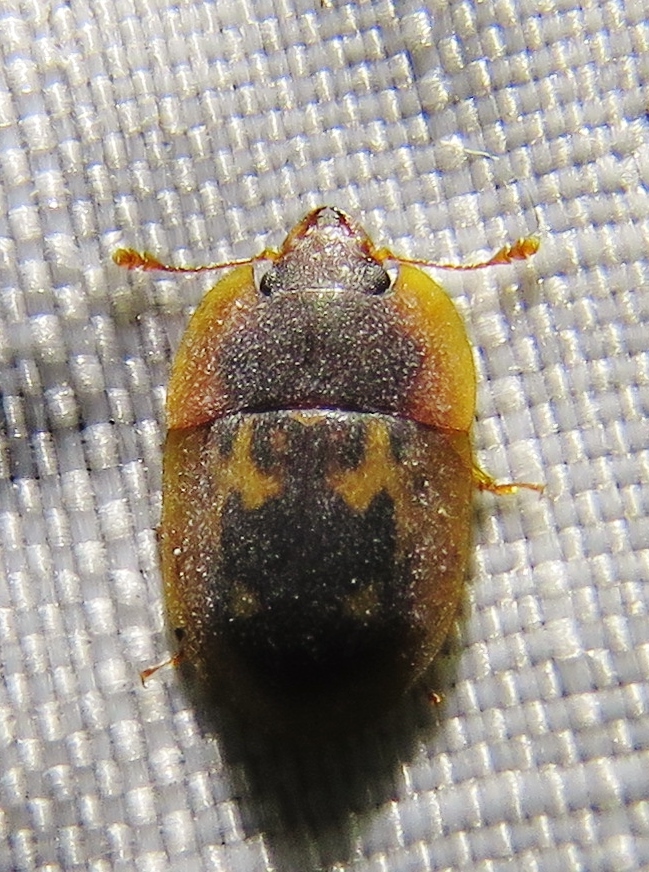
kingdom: Animalia
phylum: Arthropoda
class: Insecta
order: Coleoptera
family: Nitidulidae
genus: Prometopia
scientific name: Prometopia sexmaculata
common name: Six-spotted sap-feeding beetle
